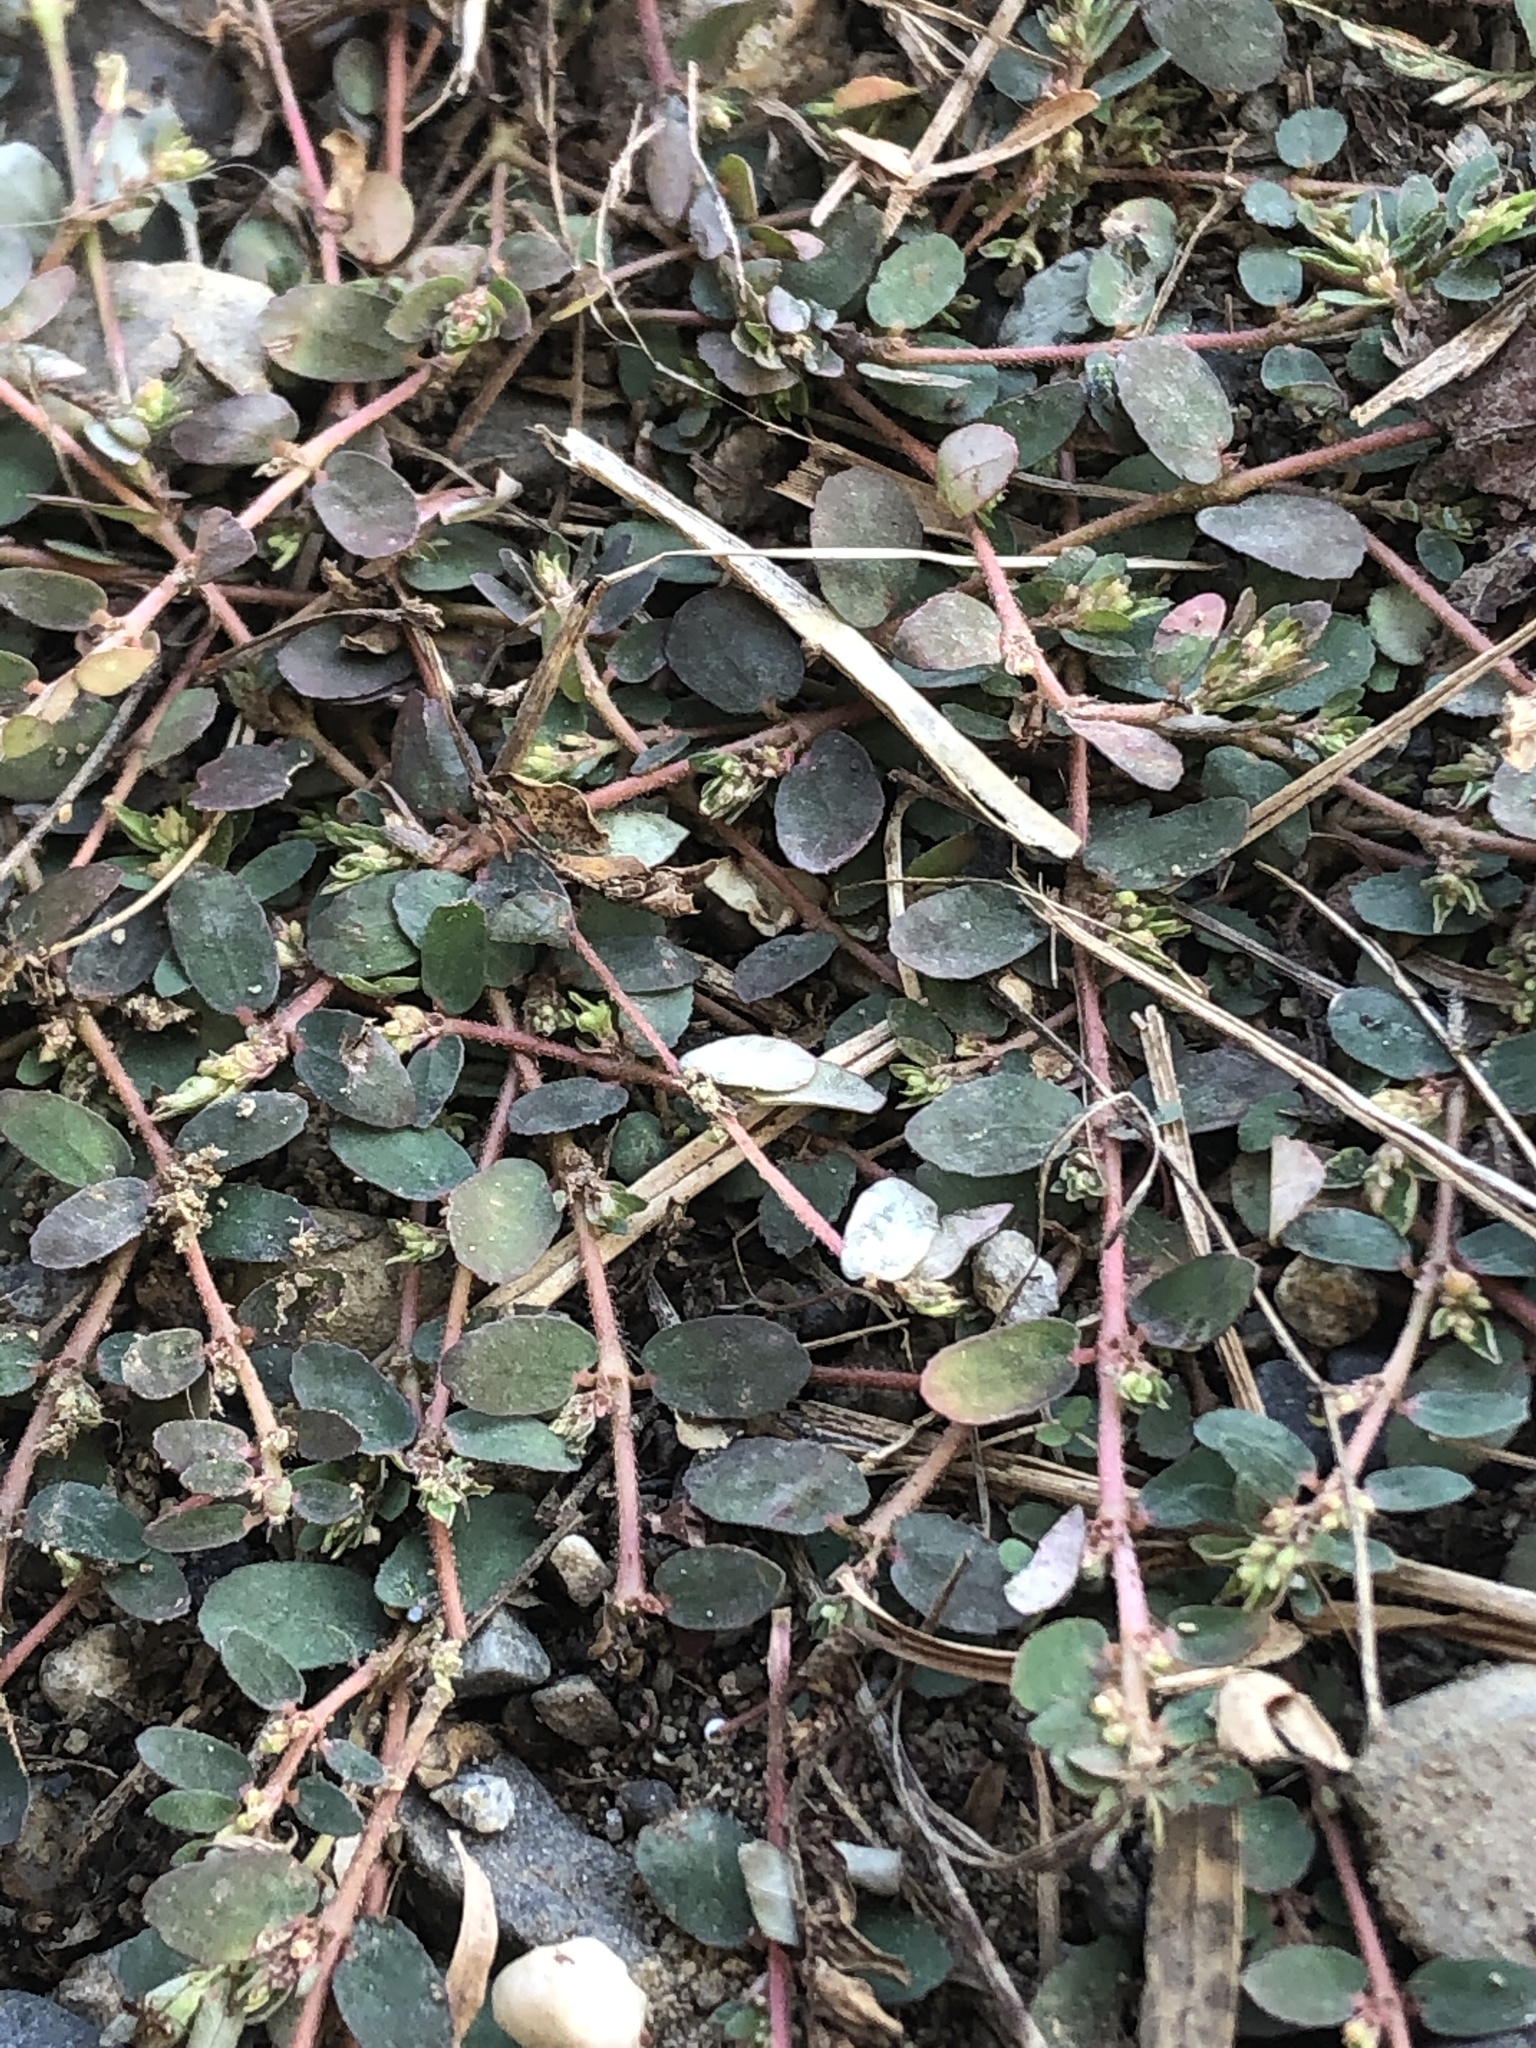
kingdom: Plantae
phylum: Tracheophyta
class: Magnoliopsida
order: Malpighiales
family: Euphorbiaceae
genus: Euphorbia
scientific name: Euphorbia thymifolia
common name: Gulf sandmat
